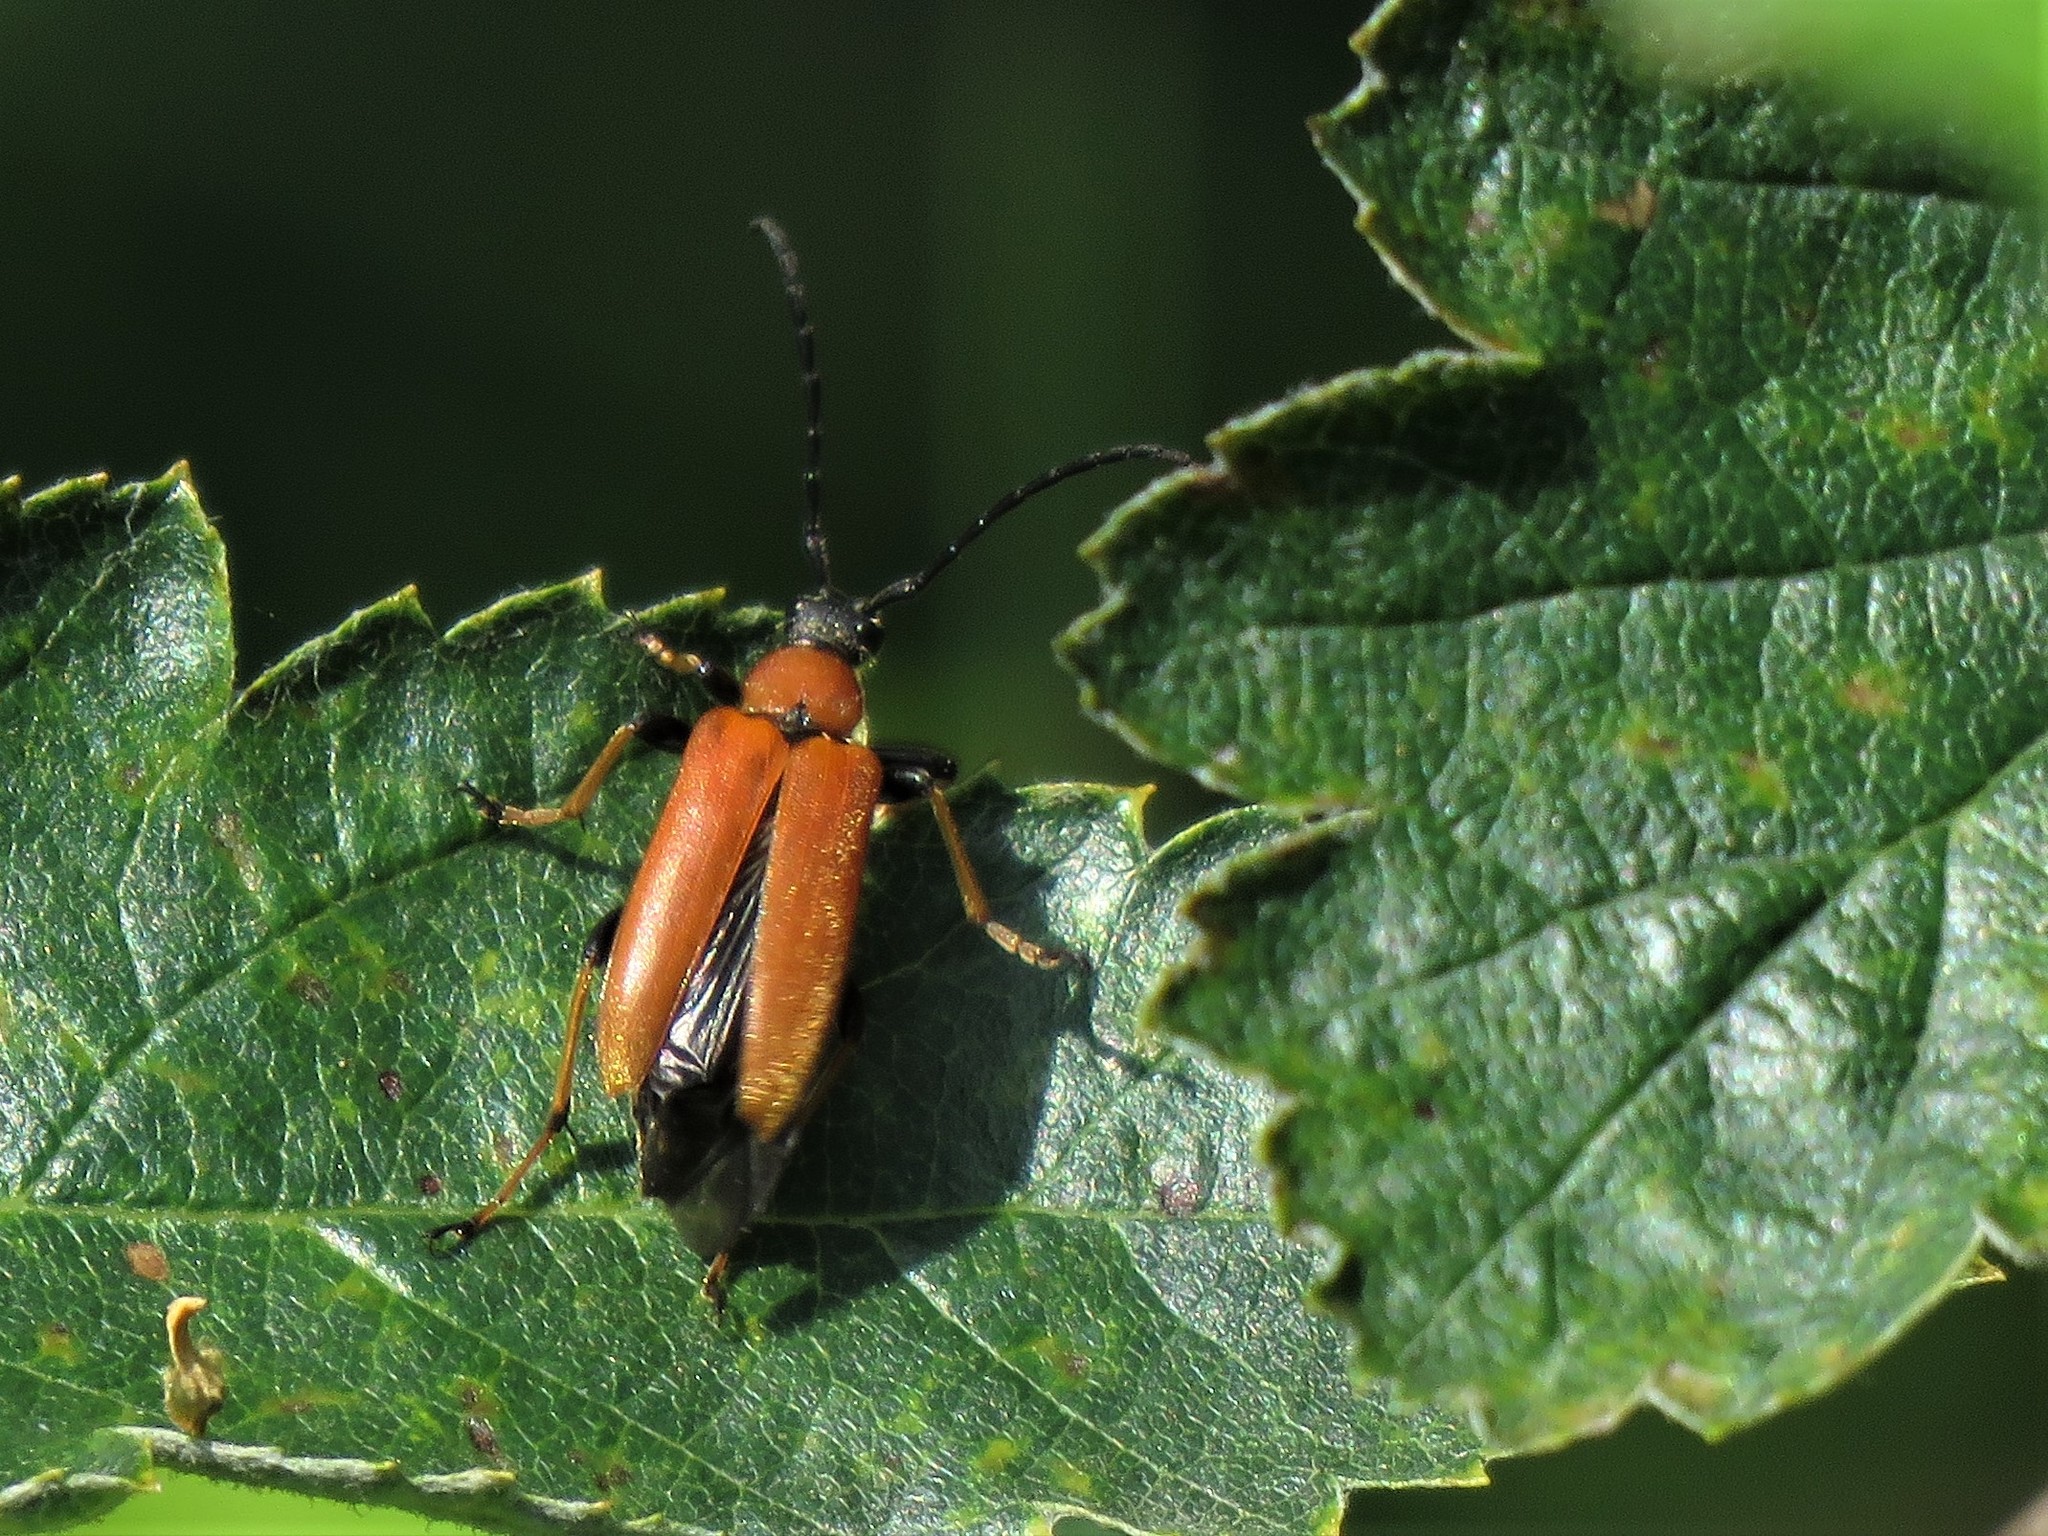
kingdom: Animalia
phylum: Arthropoda
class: Insecta
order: Coleoptera
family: Cerambycidae
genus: Stictoleptura
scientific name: Stictoleptura rubra
